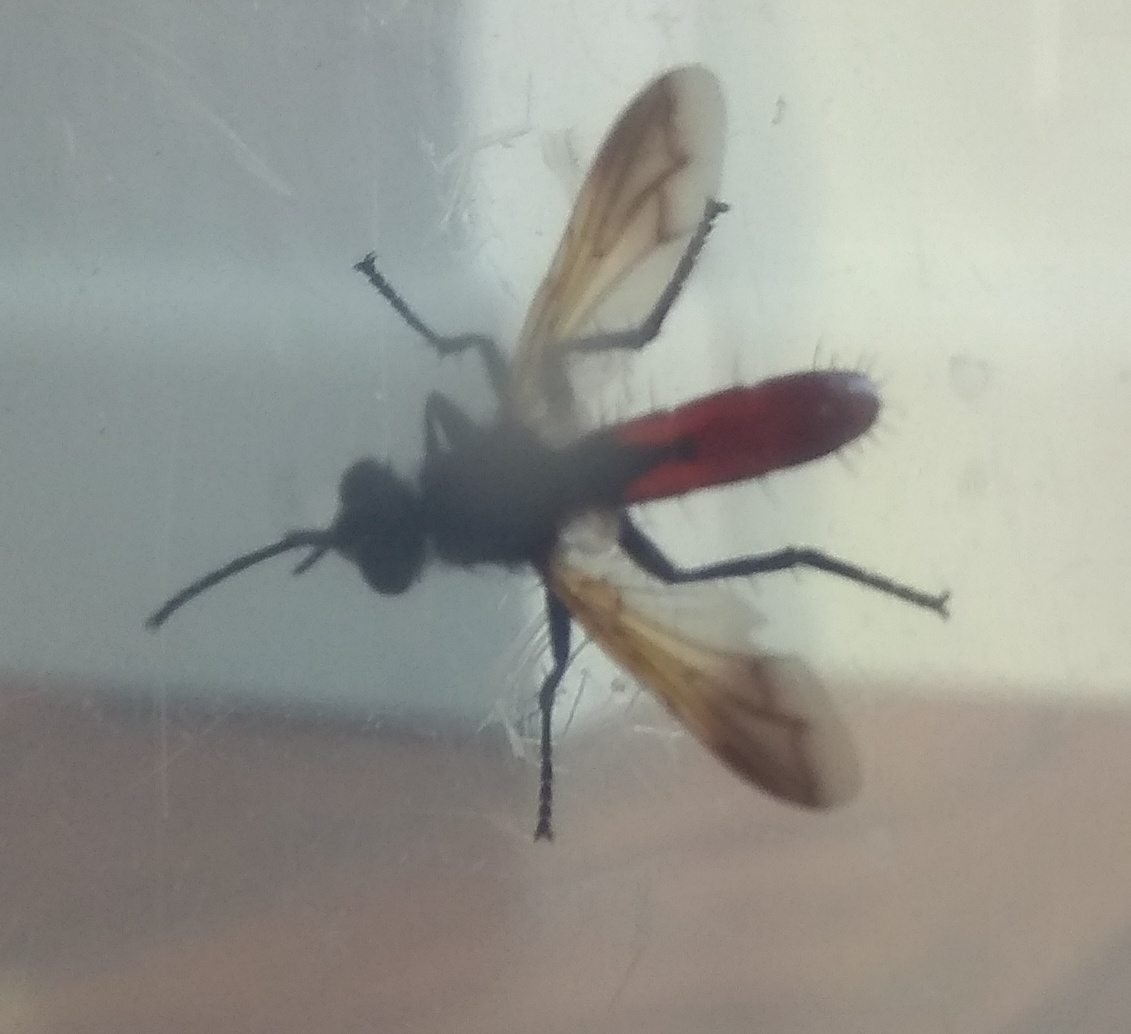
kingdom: Animalia
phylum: Arthropoda
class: Insecta
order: Diptera
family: Tachinidae
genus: Cylindromyia
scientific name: Cylindromyia bicolor
